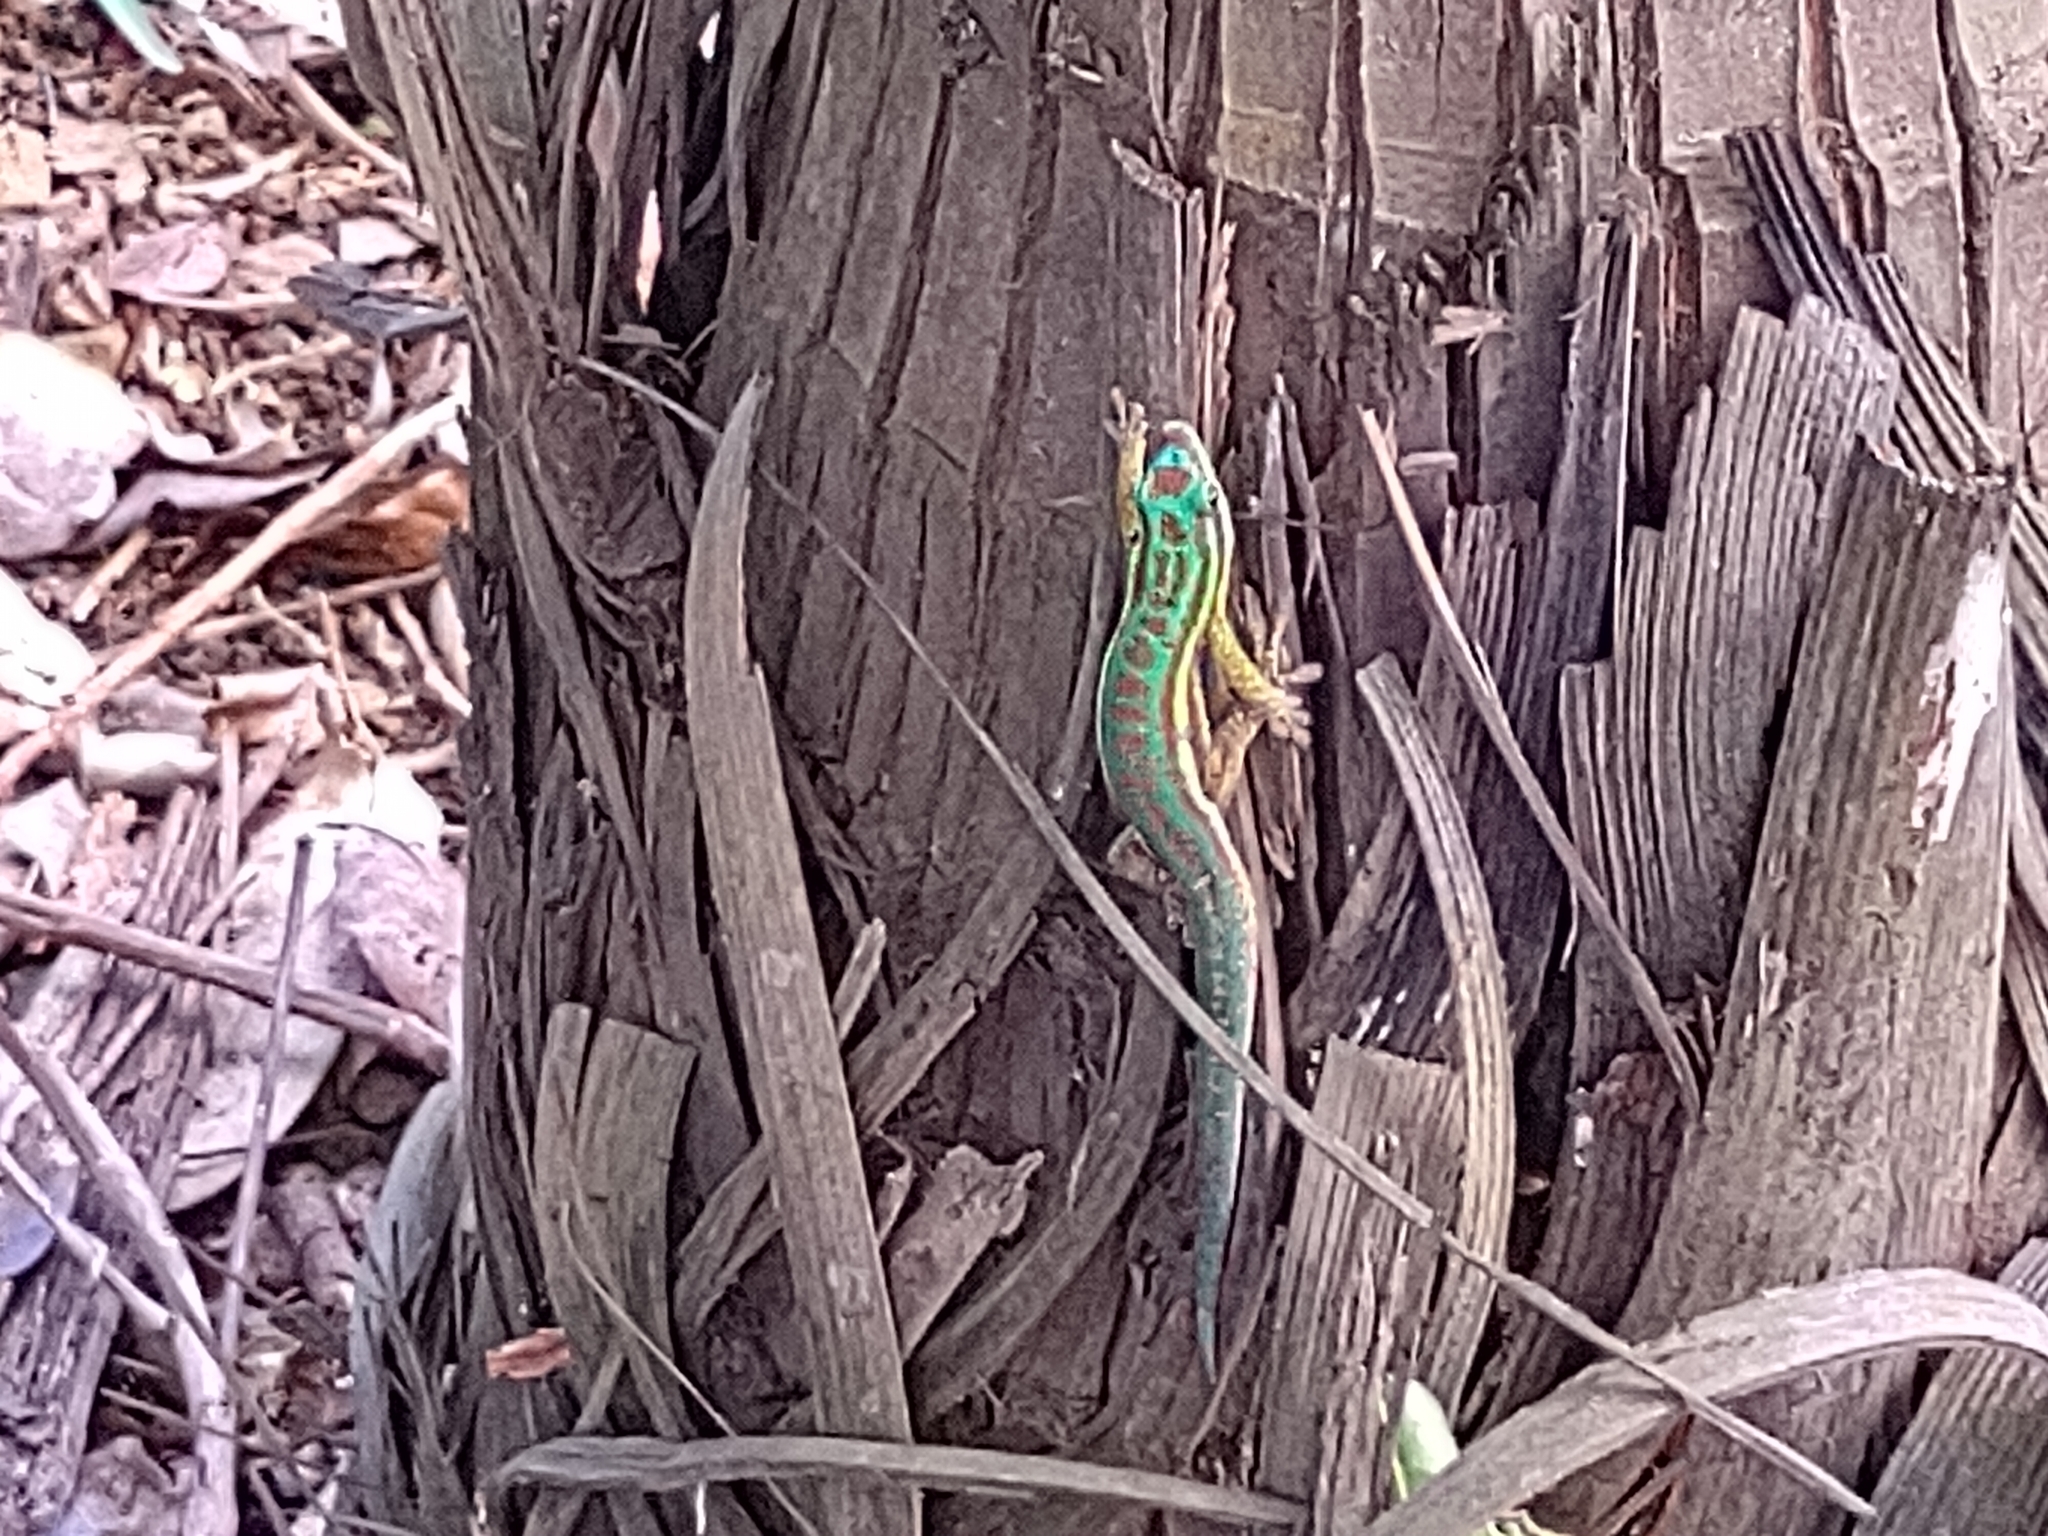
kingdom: Animalia
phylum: Chordata
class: Squamata
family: Gekkonidae
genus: Phelsuma
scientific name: Phelsuma cepediana
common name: Bluetail day gecko
